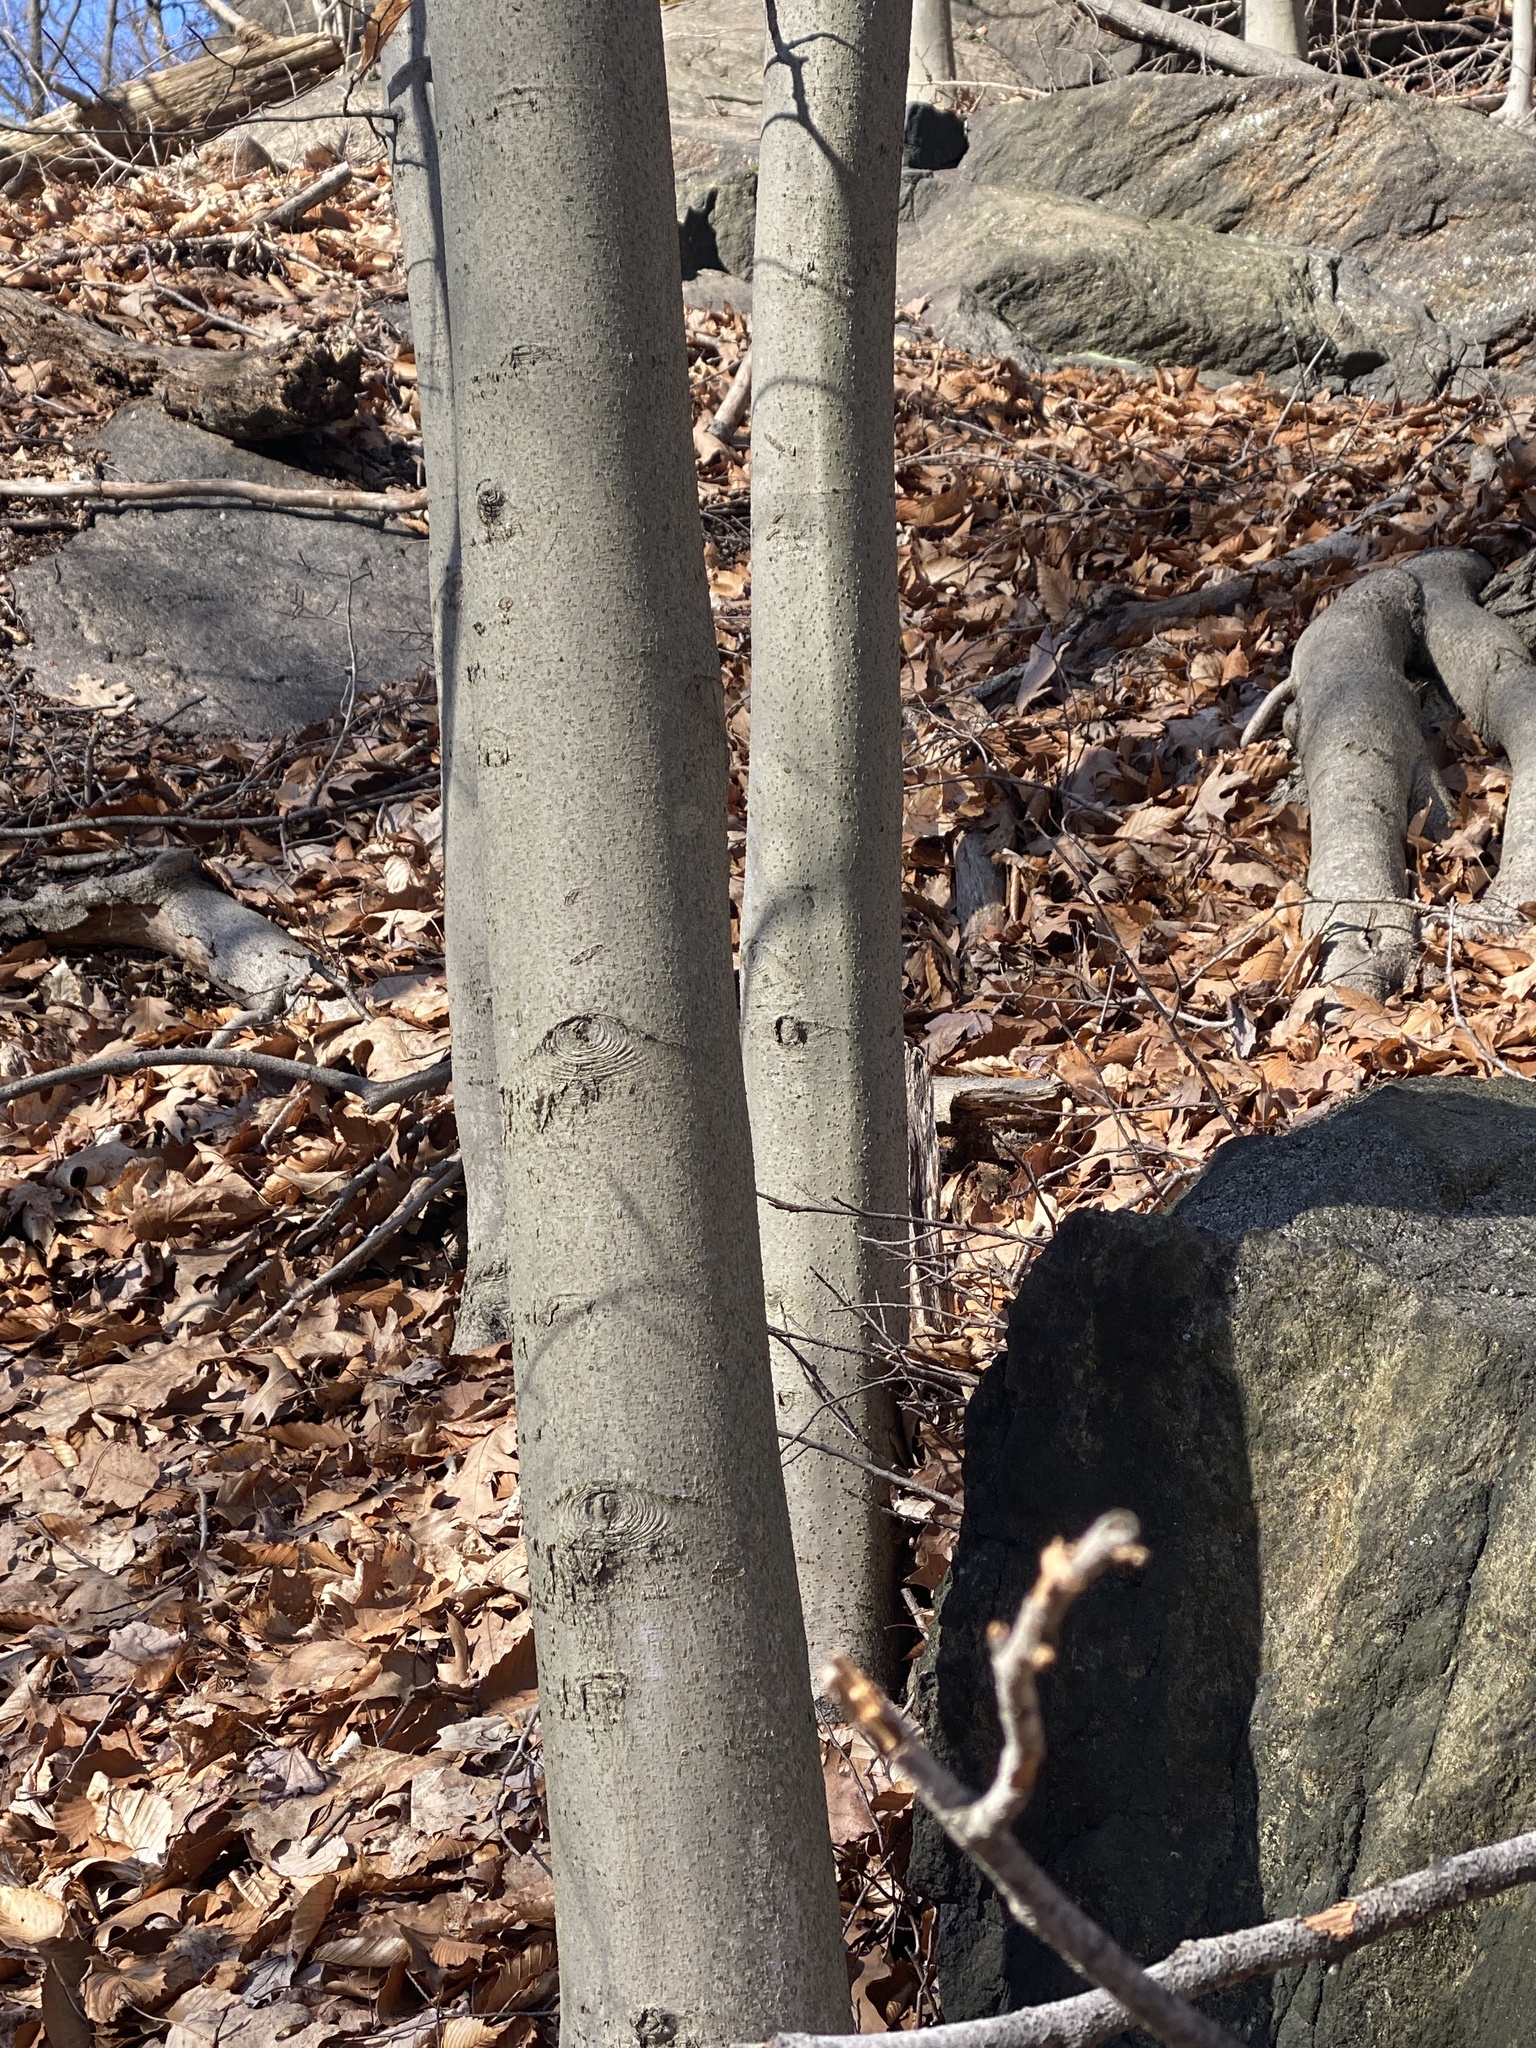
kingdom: Plantae
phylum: Tracheophyta
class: Magnoliopsida
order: Fagales
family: Fagaceae
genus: Fagus
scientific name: Fagus grandifolia
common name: American beech
